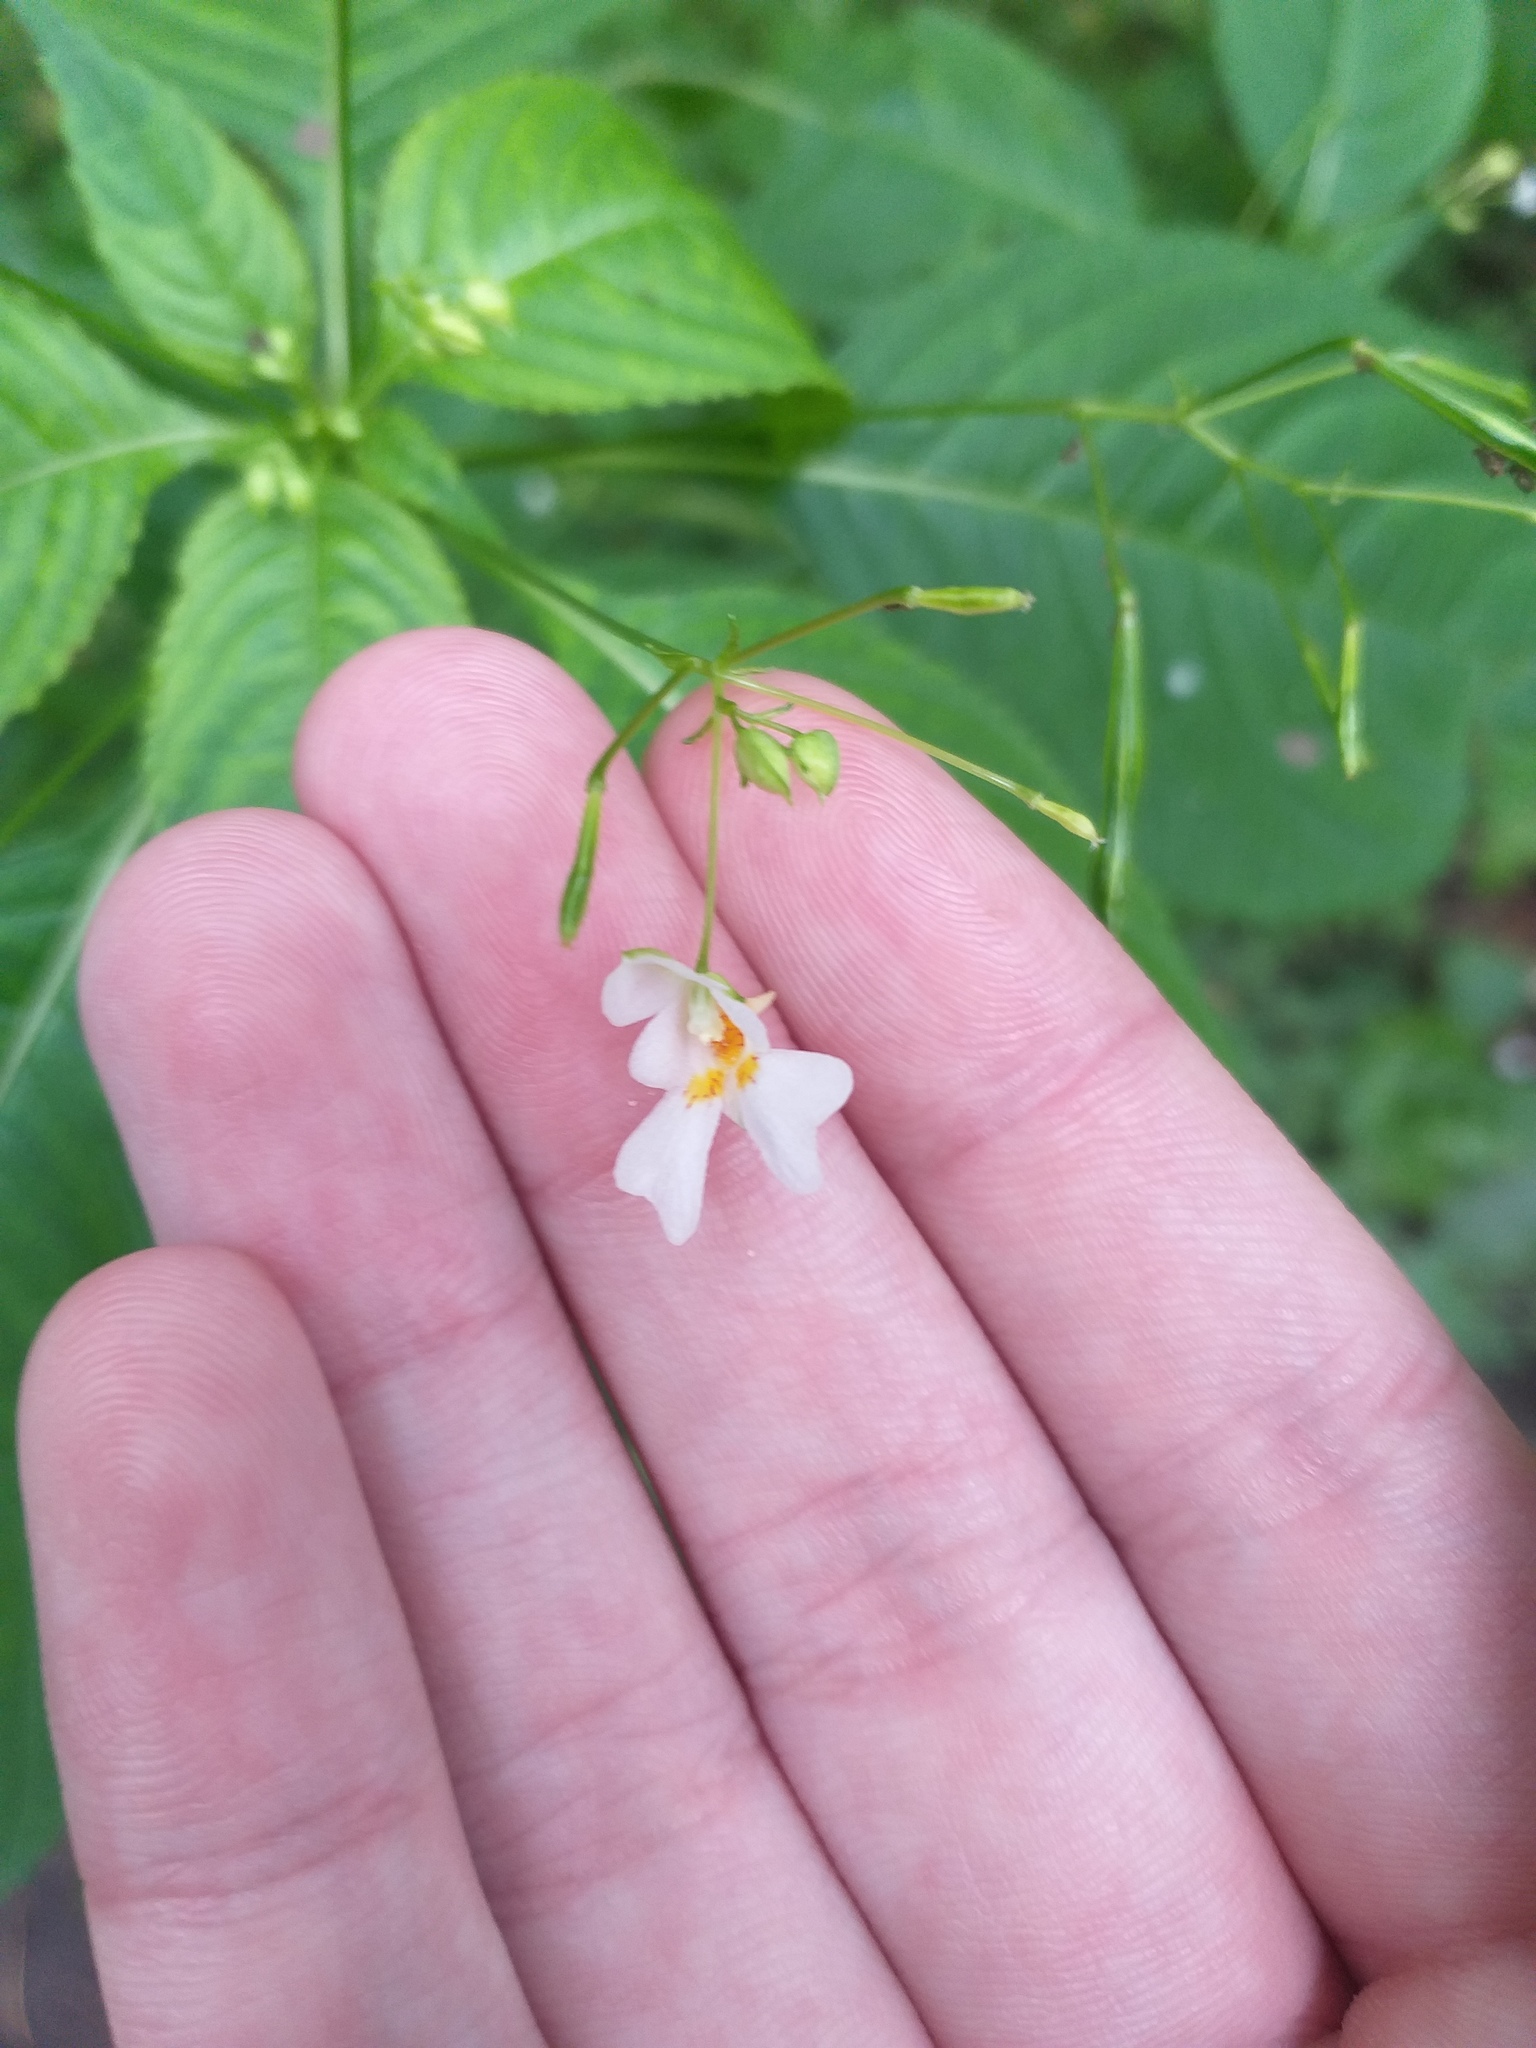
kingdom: Plantae
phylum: Tracheophyta
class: Magnoliopsida
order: Ericales
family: Balsaminaceae
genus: Impatiens
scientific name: Impatiens parviflora
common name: Small balsam
